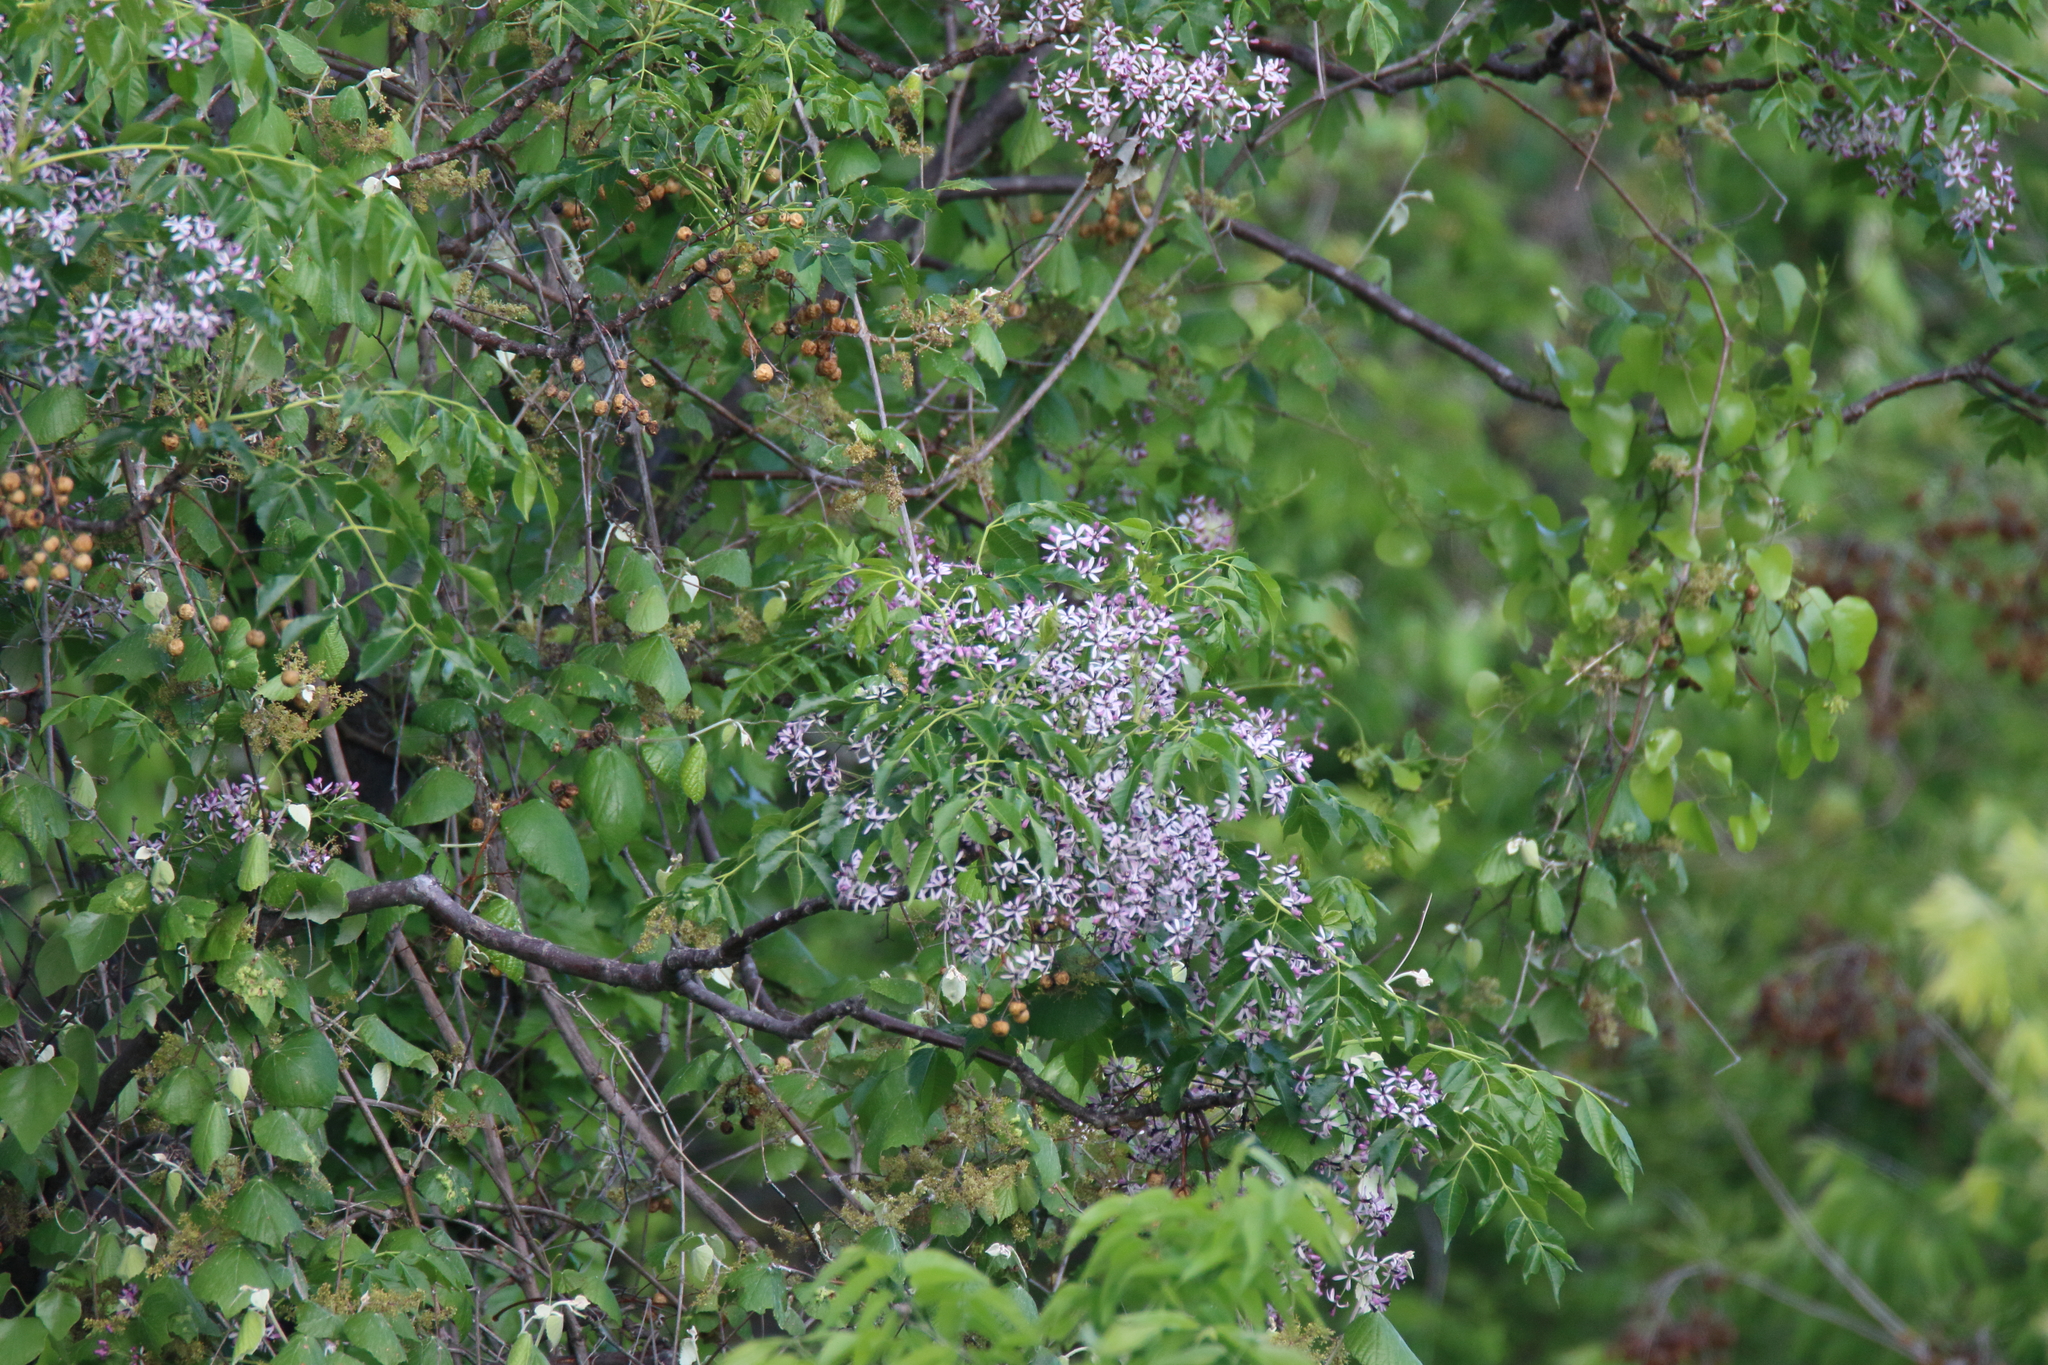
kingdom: Plantae
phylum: Tracheophyta
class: Magnoliopsida
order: Sapindales
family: Meliaceae
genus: Melia
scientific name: Melia azedarach
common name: Chinaberrytree
